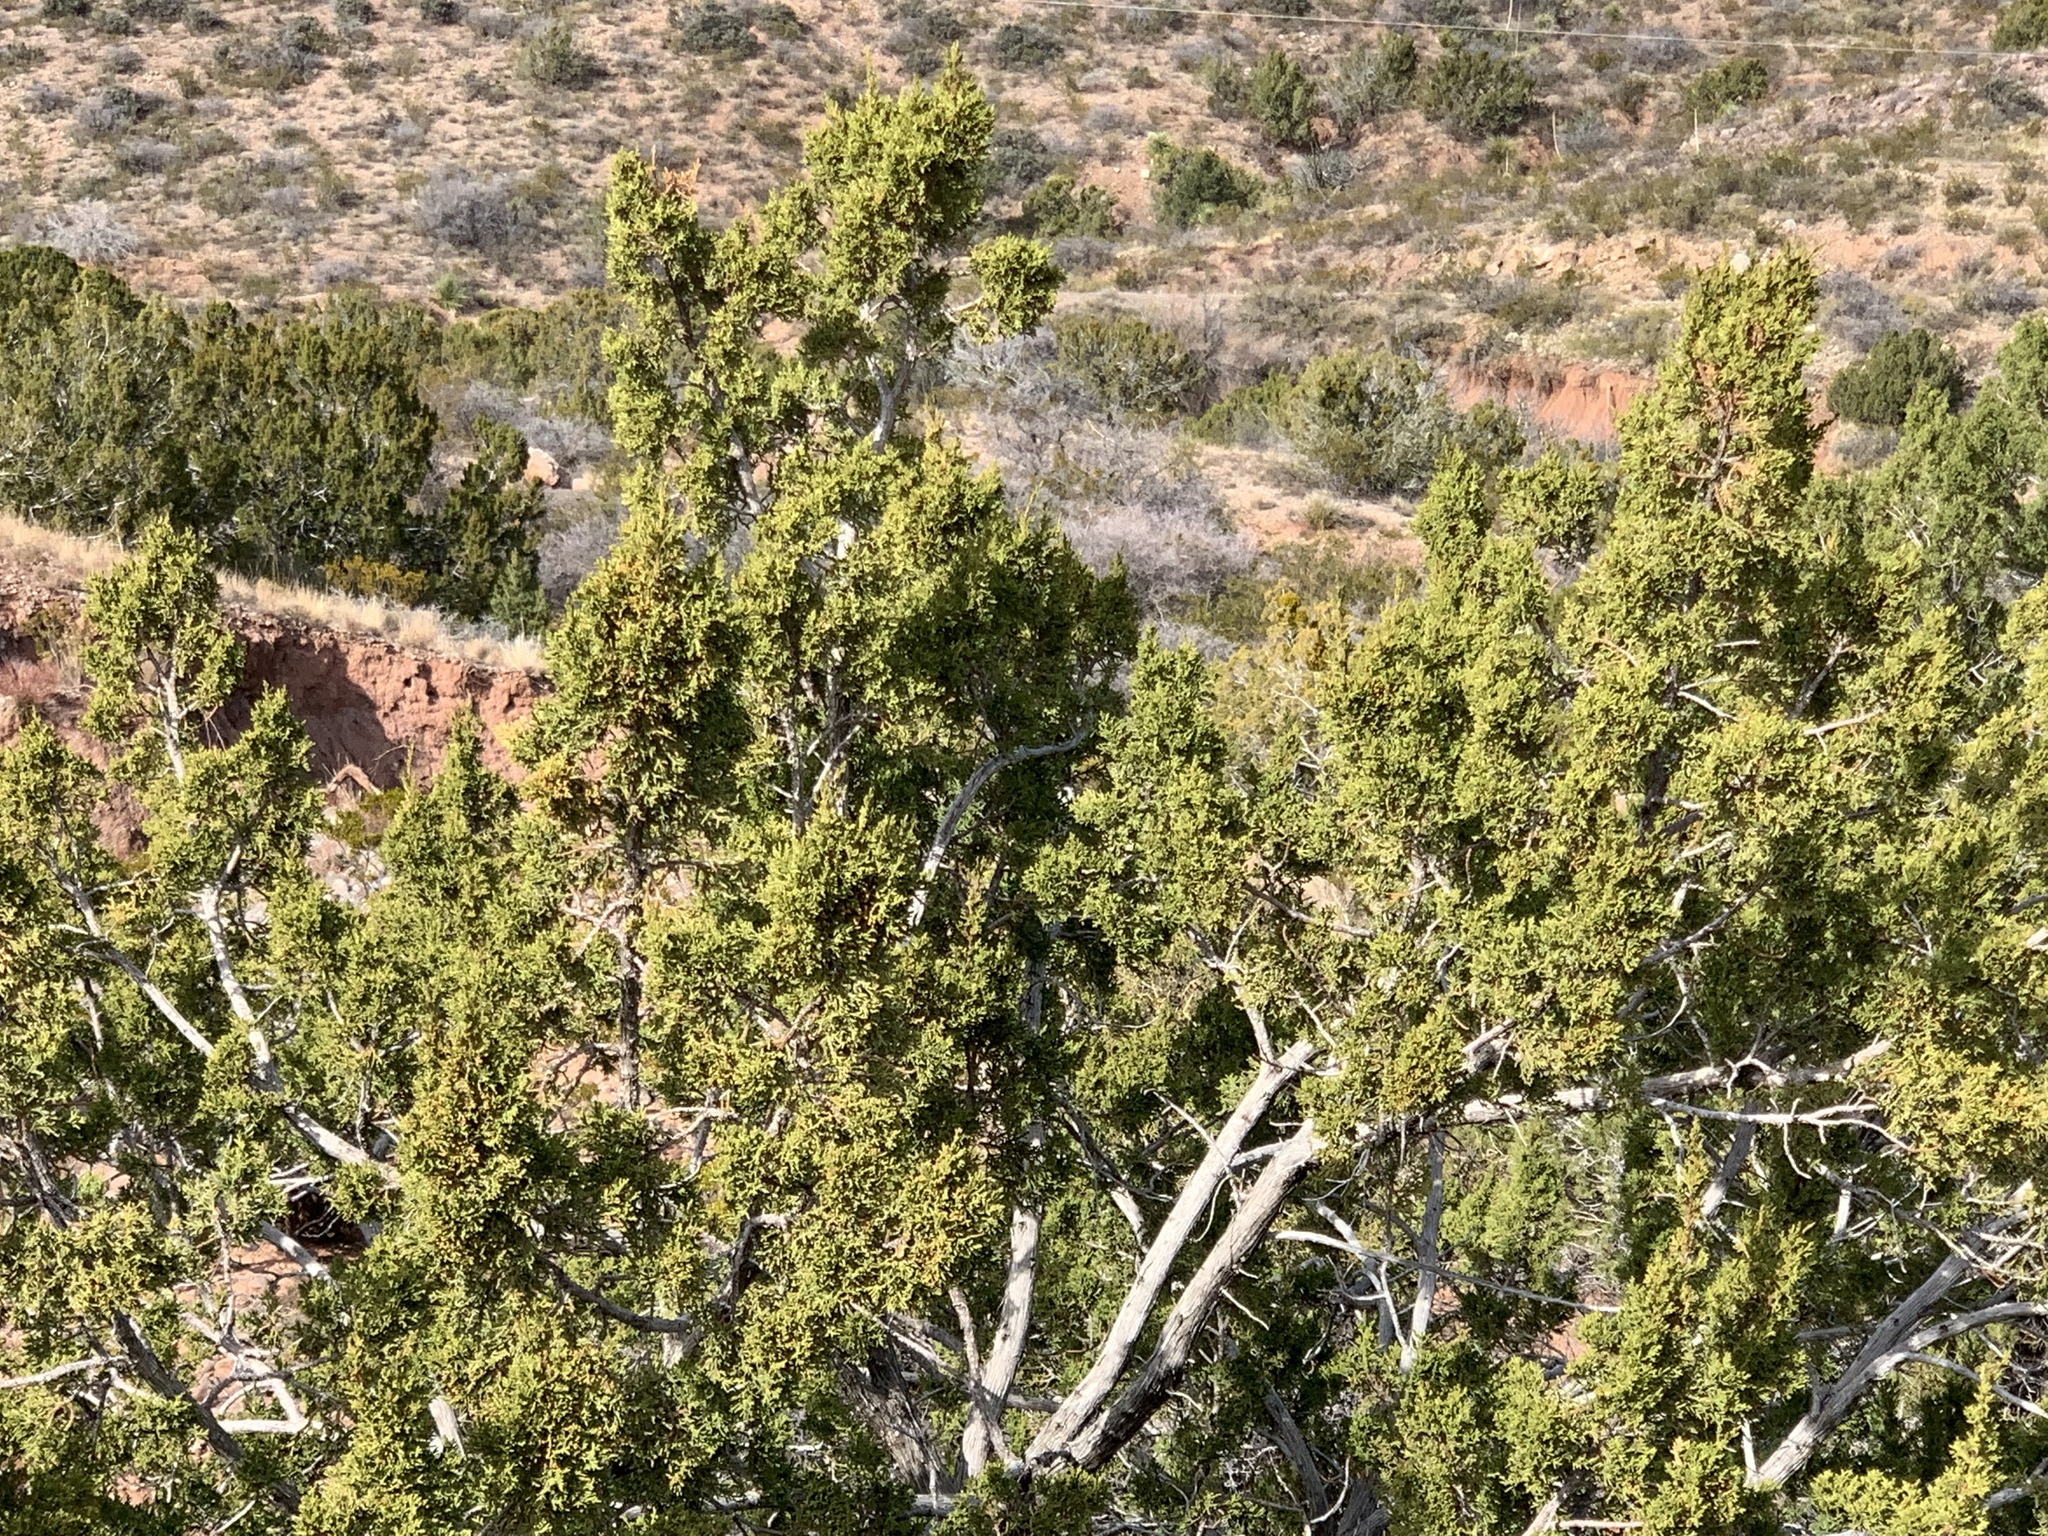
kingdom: Plantae
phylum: Tracheophyta
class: Pinopsida
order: Pinales
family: Cupressaceae
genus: Juniperus
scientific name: Juniperus monosperma
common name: One-seed juniper
